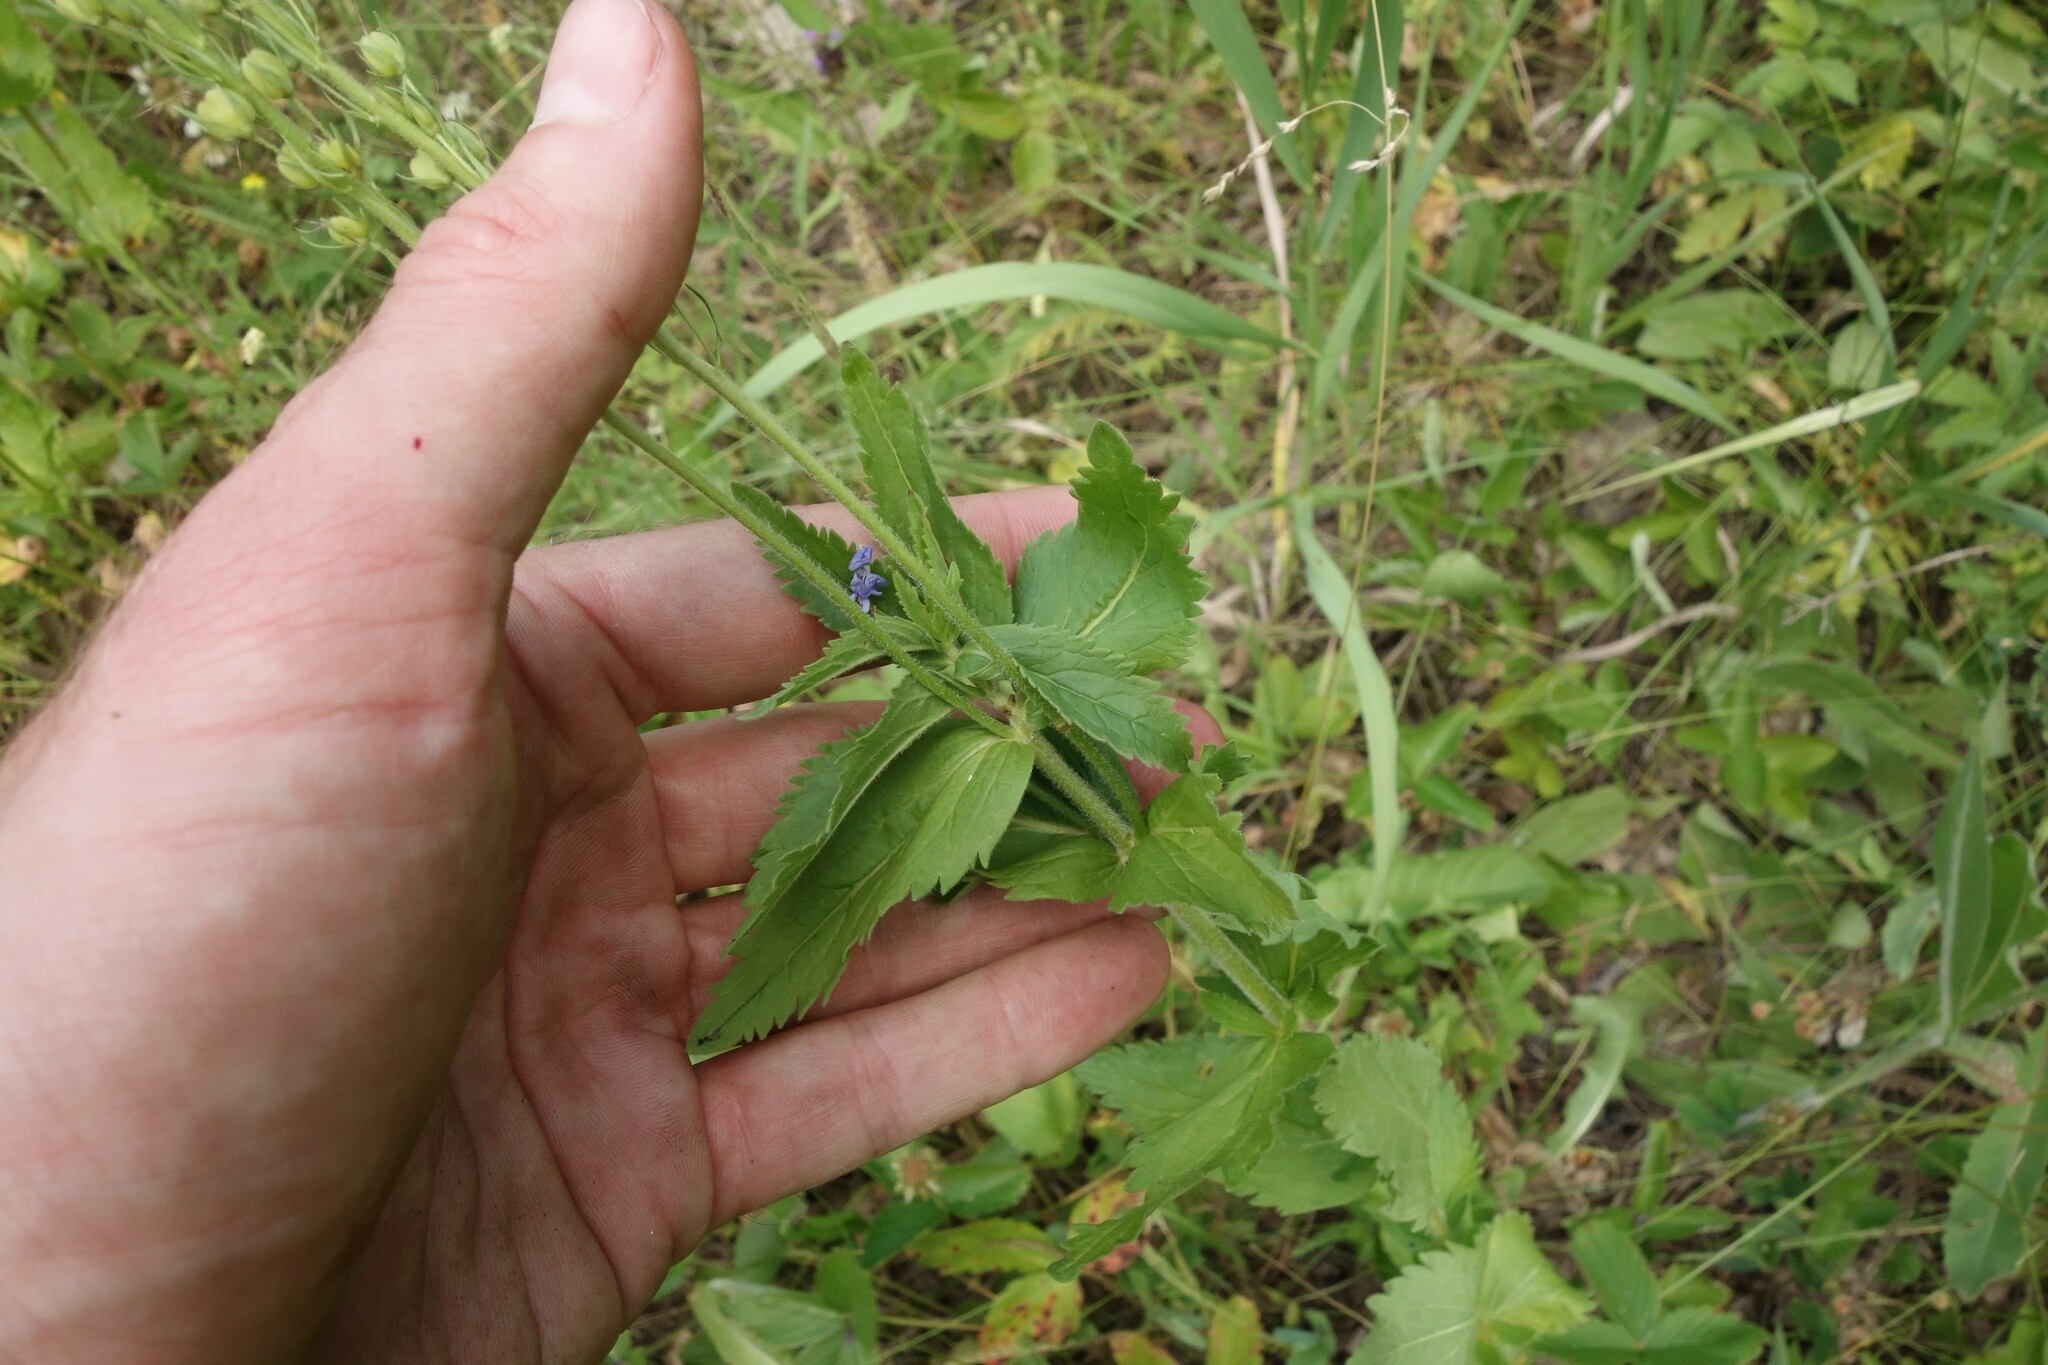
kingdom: Plantae
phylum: Tracheophyta
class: Magnoliopsida
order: Lamiales
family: Plantaginaceae
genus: Veronica
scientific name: Veronica teucrium
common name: Large speedwell
